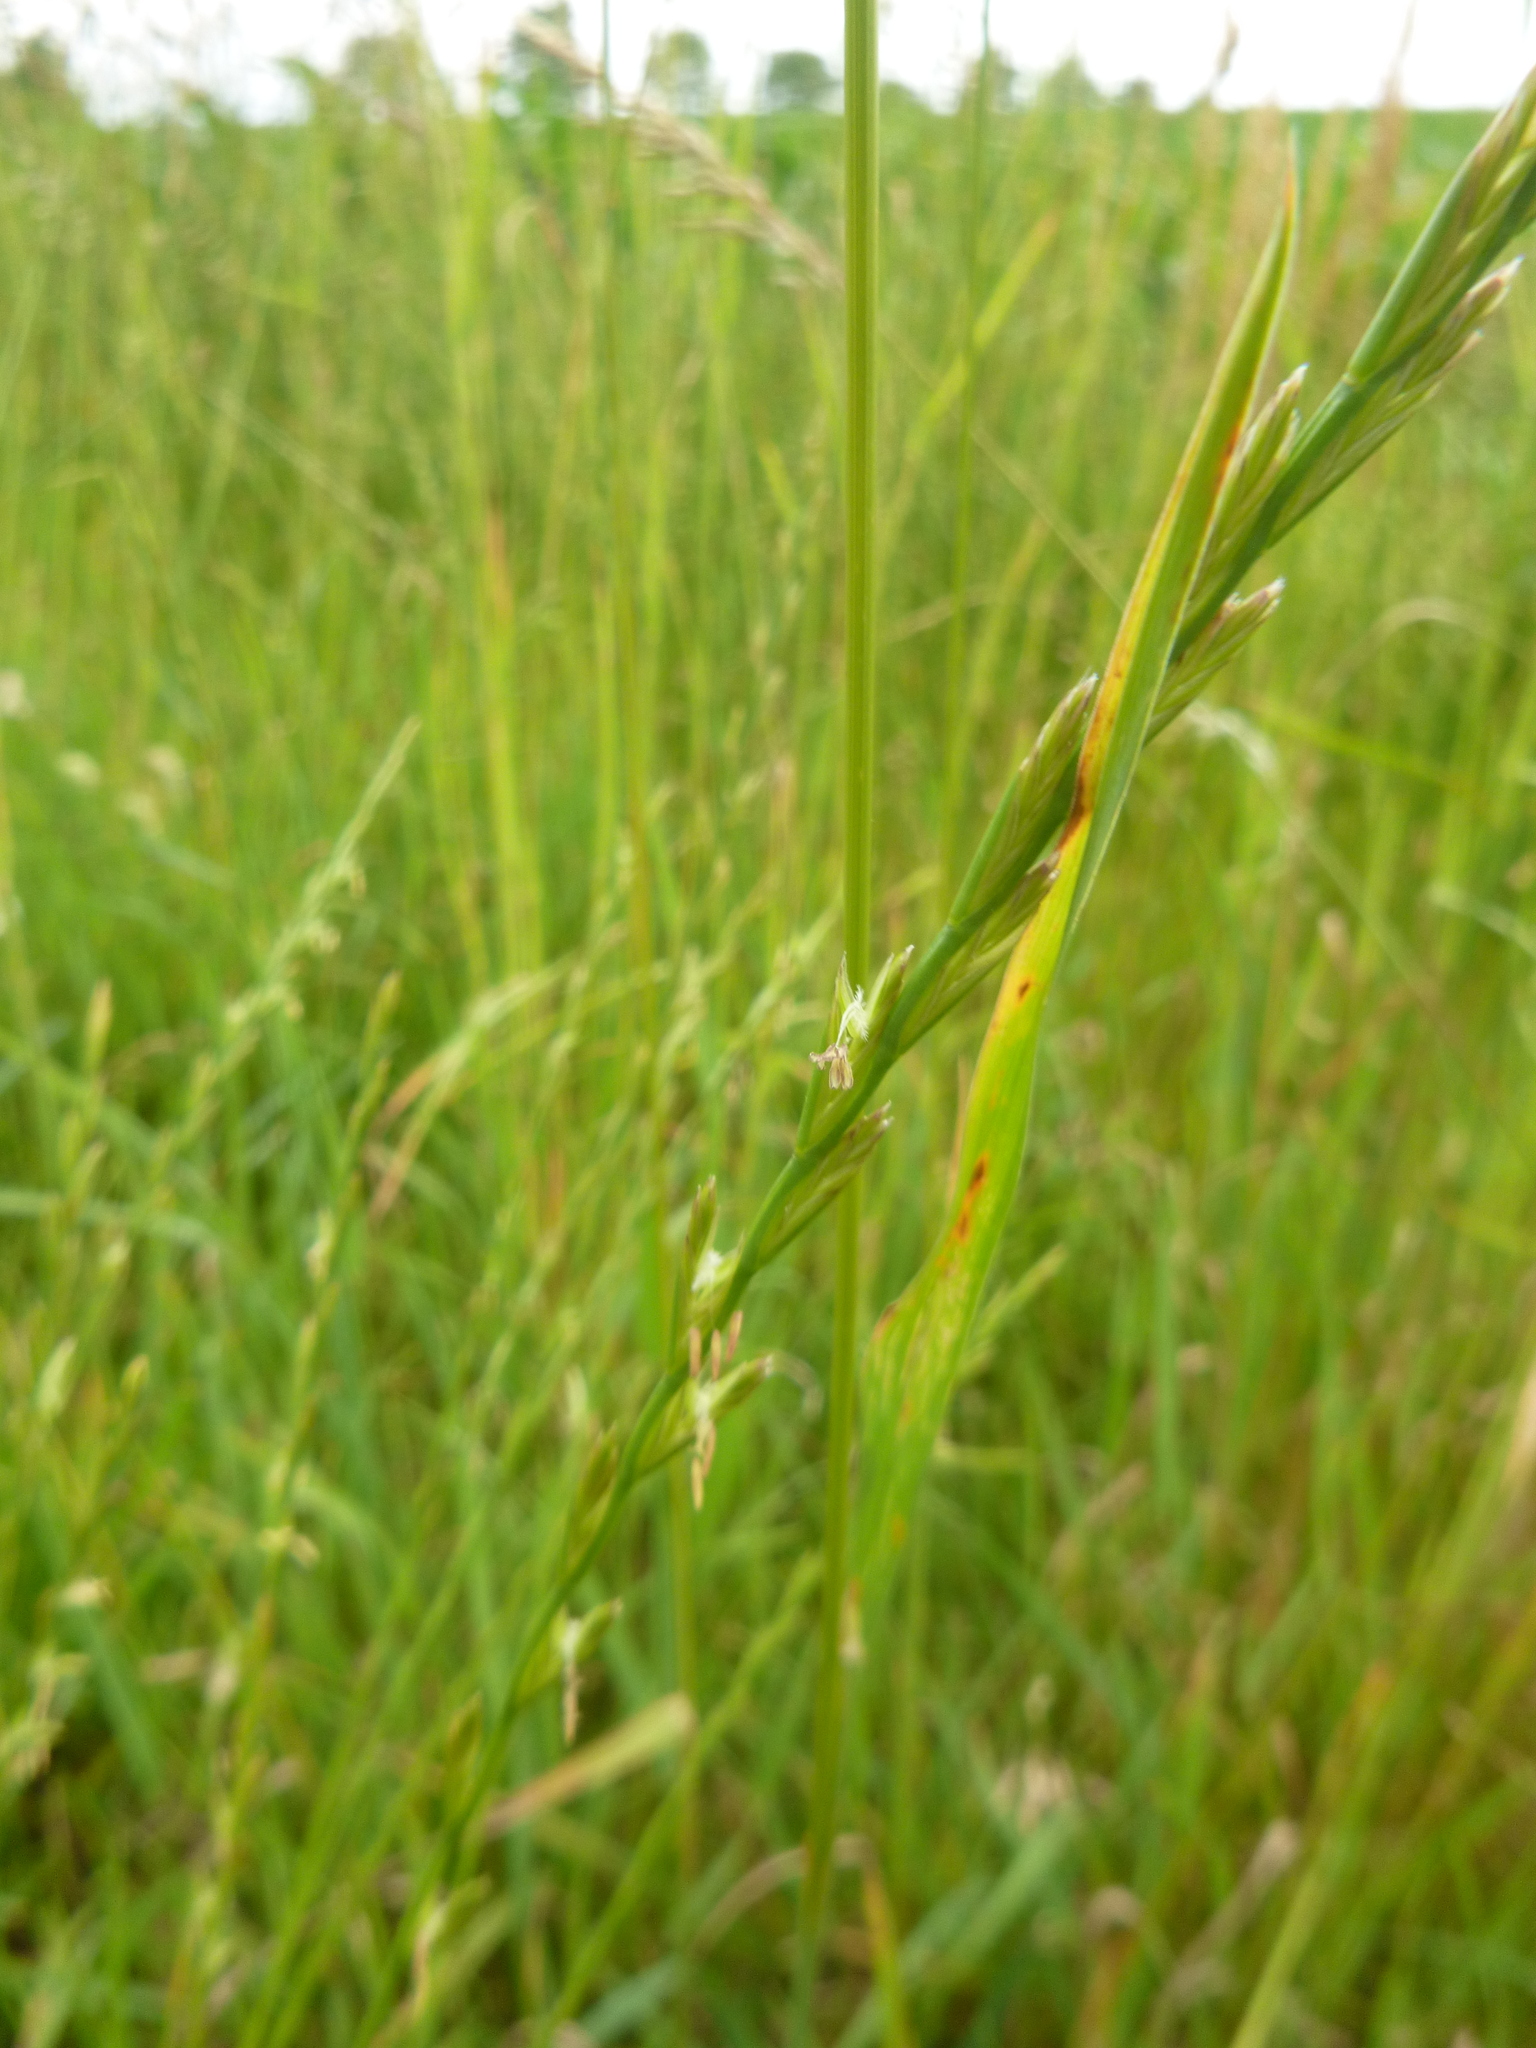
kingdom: Plantae
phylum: Tracheophyta
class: Liliopsida
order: Poales
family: Poaceae
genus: Lolium
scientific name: Lolium perenne
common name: Perennial ryegrass
